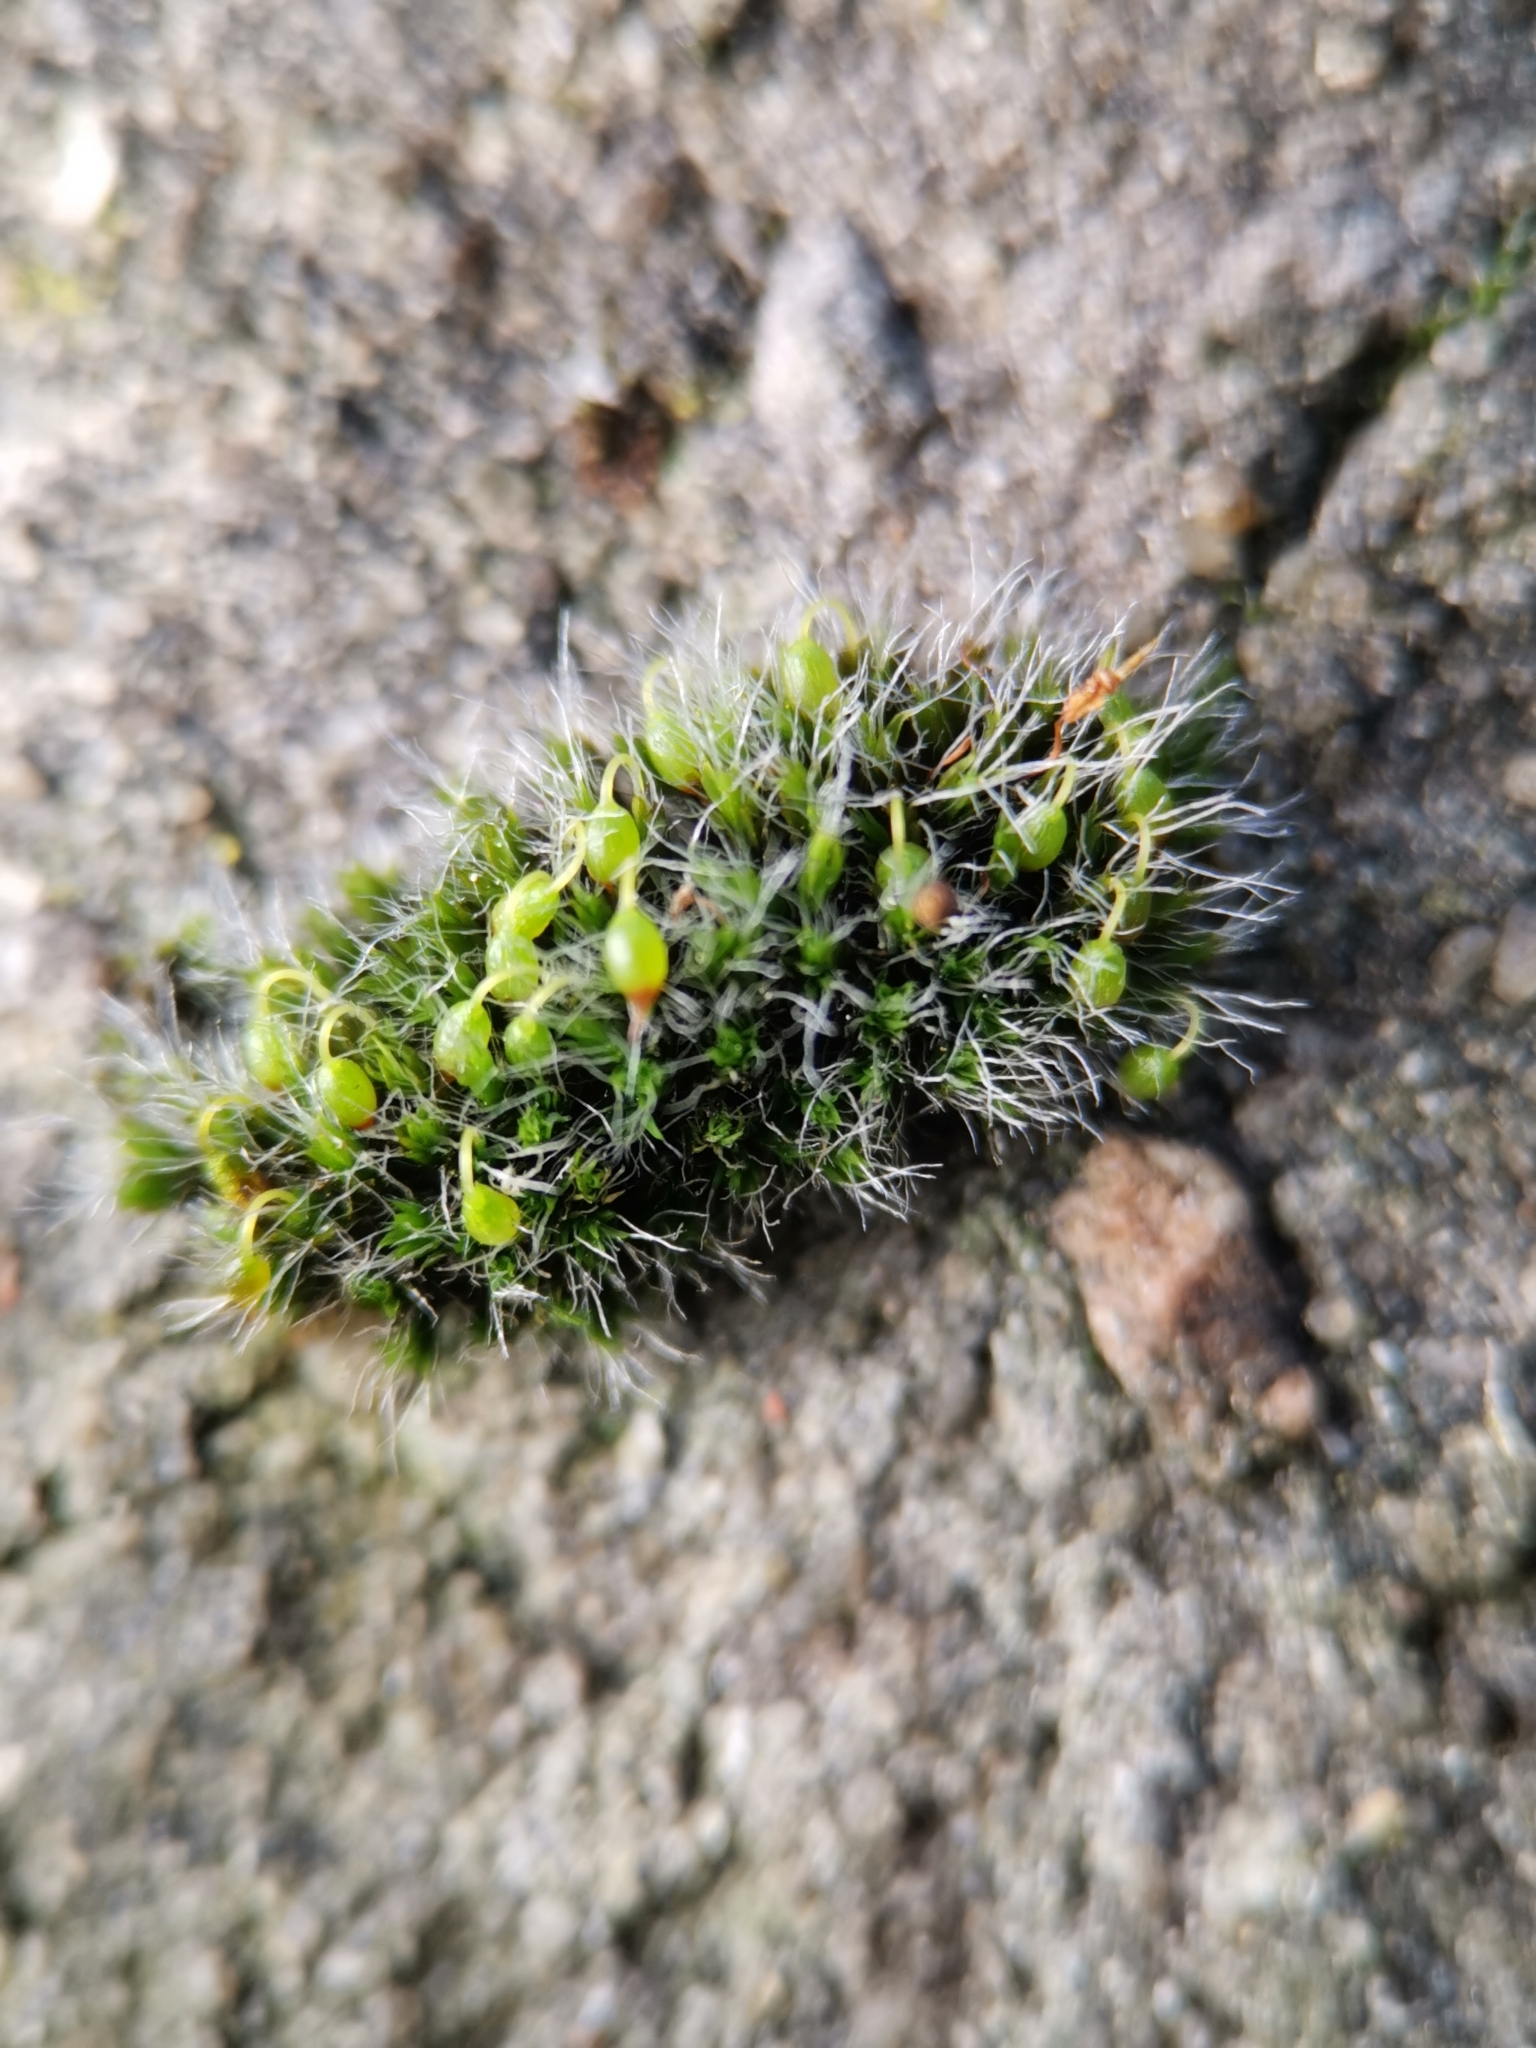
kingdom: Plantae
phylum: Bryophyta
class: Bryopsida
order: Grimmiales
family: Grimmiaceae
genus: Grimmia
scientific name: Grimmia pulvinata
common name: Grey-cushioned grimmia
